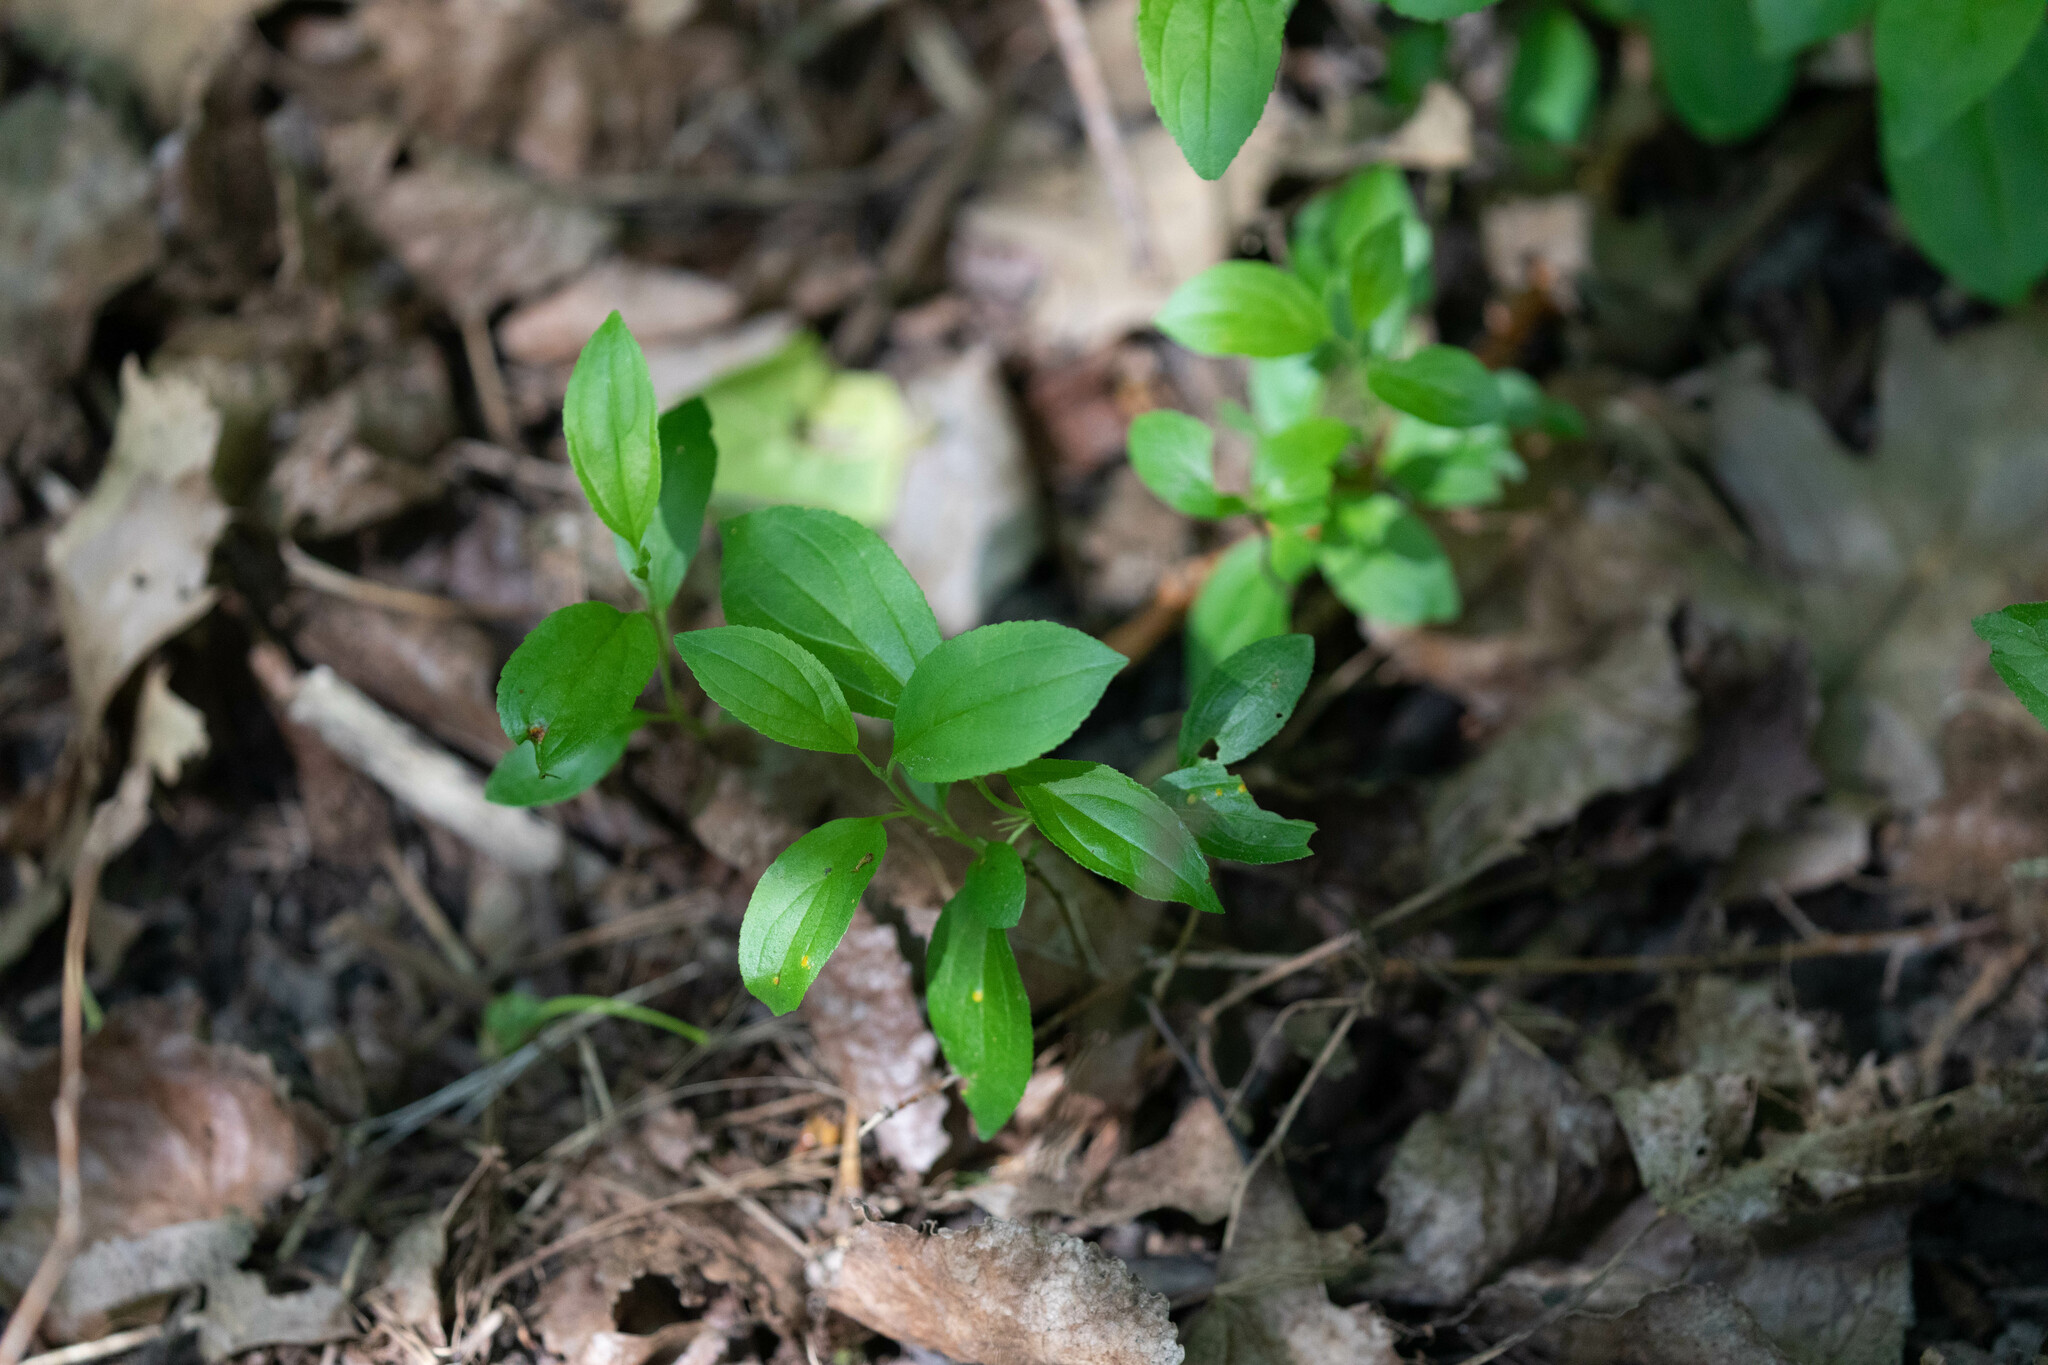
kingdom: Plantae
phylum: Tracheophyta
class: Magnoliopsida
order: Rosales
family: Rhamnaceae
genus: Rhamnus
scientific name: Rhamnus cathartica
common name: Common buckthorn
